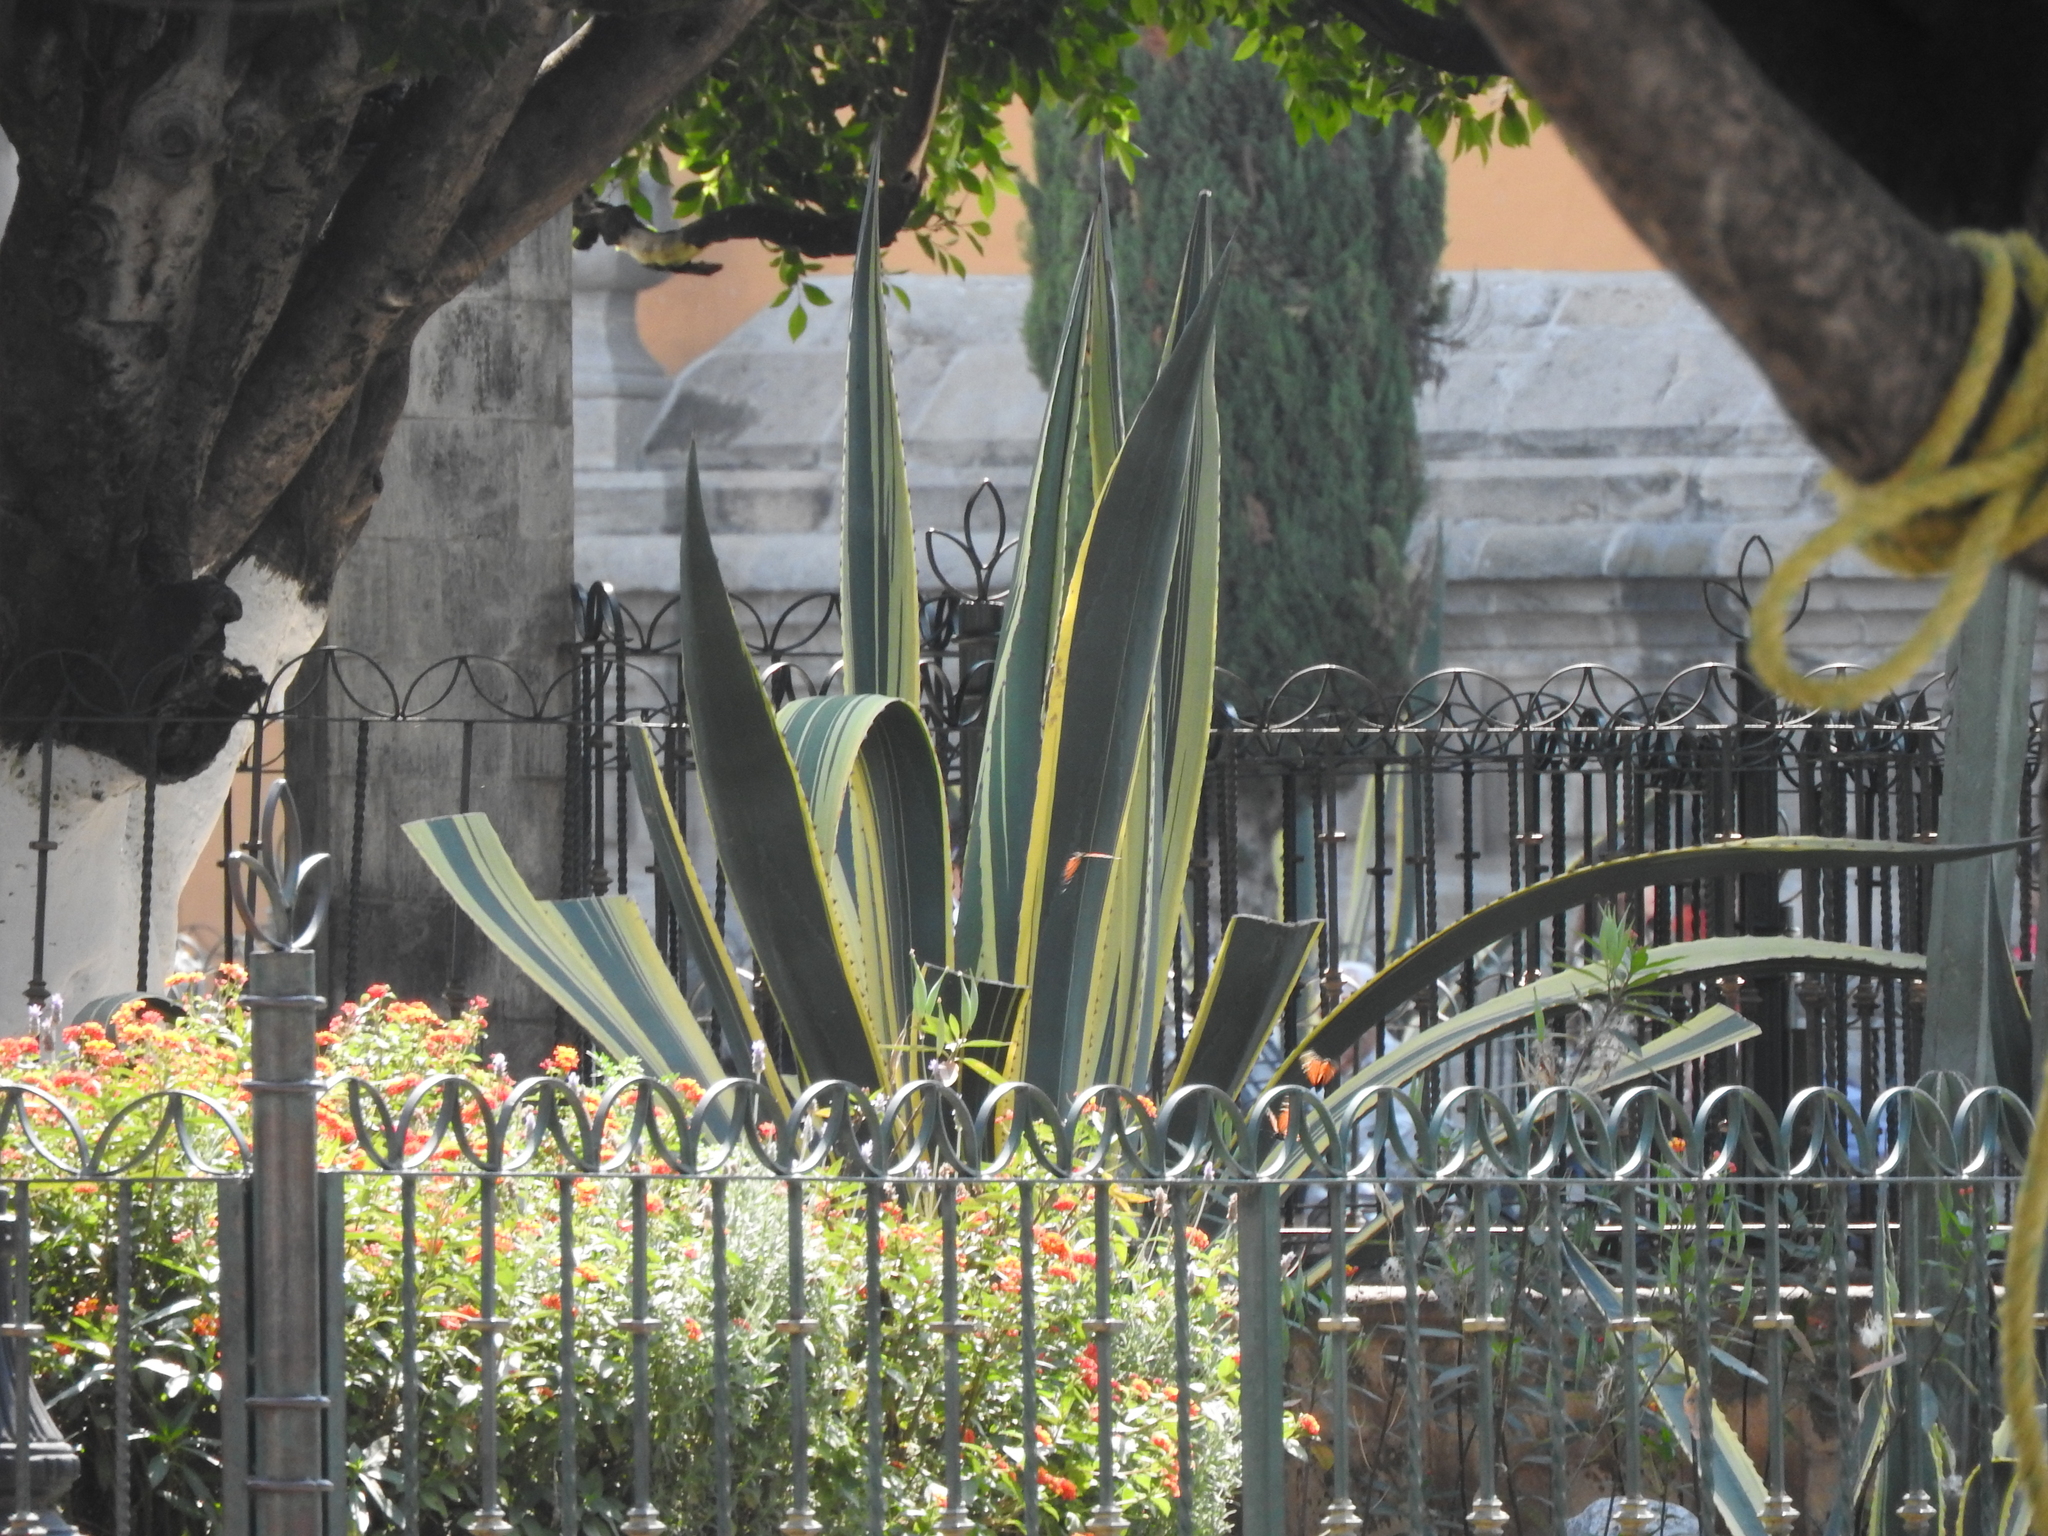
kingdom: Animalia
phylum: Arthropoda
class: Insecta
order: Lepidoptera
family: Nymphalidae
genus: Danaus
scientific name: Danaus plexippus
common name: Monarch
